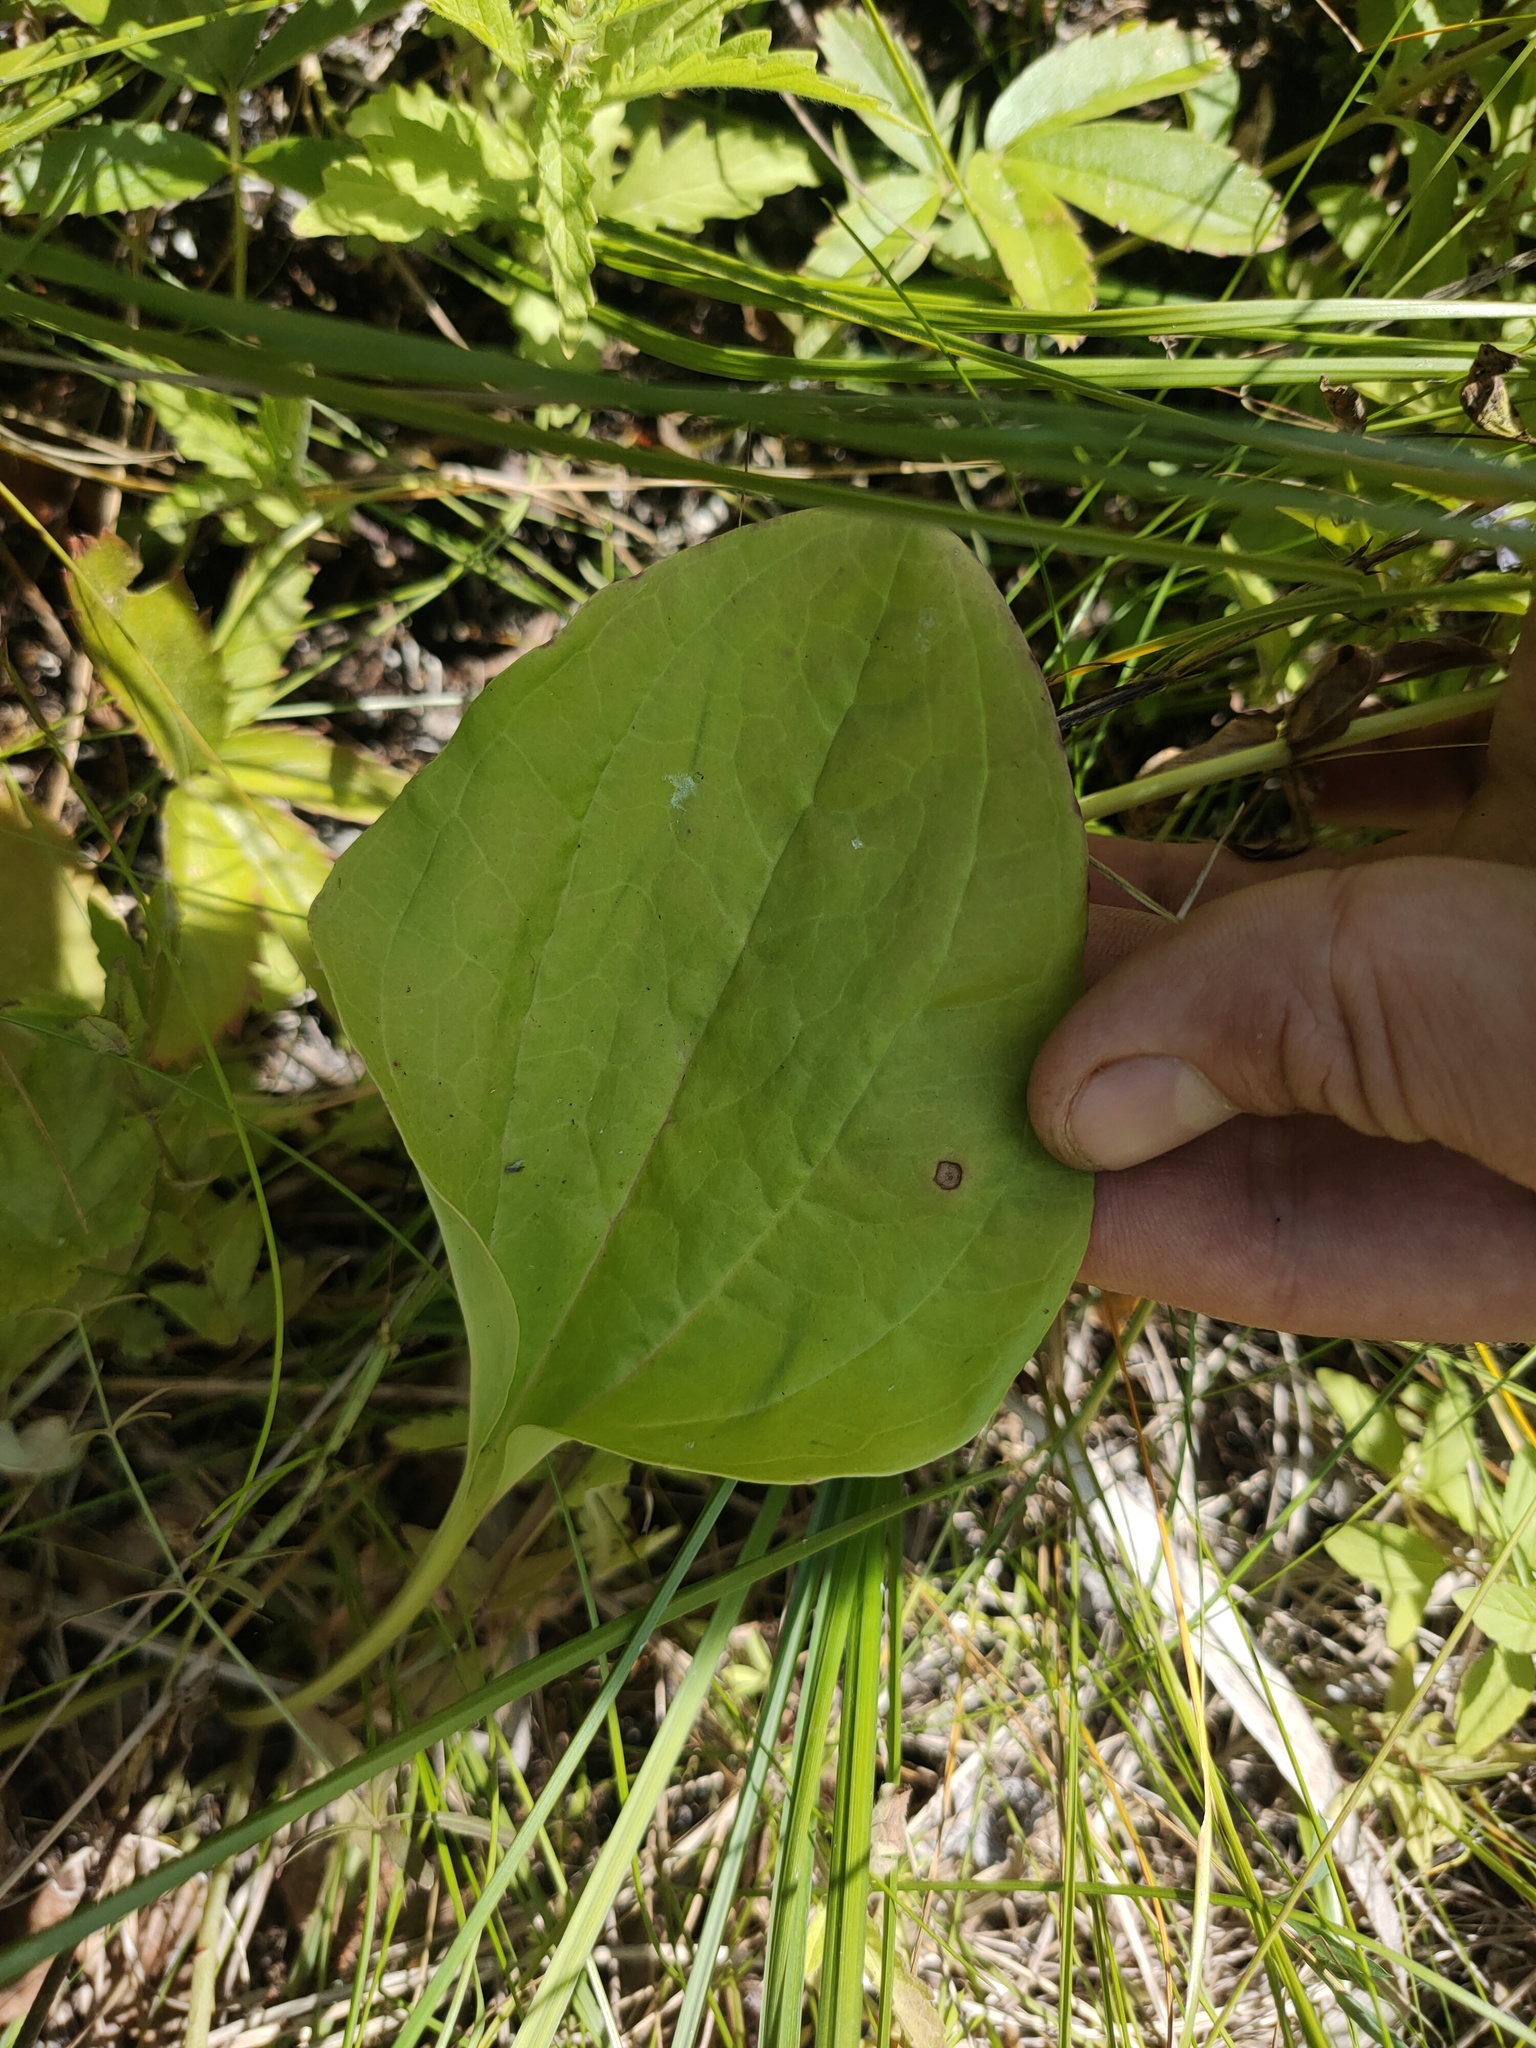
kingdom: Plantae
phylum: Tracheophyta
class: Magnoliopsida
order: Lamiales
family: Plantaginaceae
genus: Plantago
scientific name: Plantago major
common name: Common plantain
